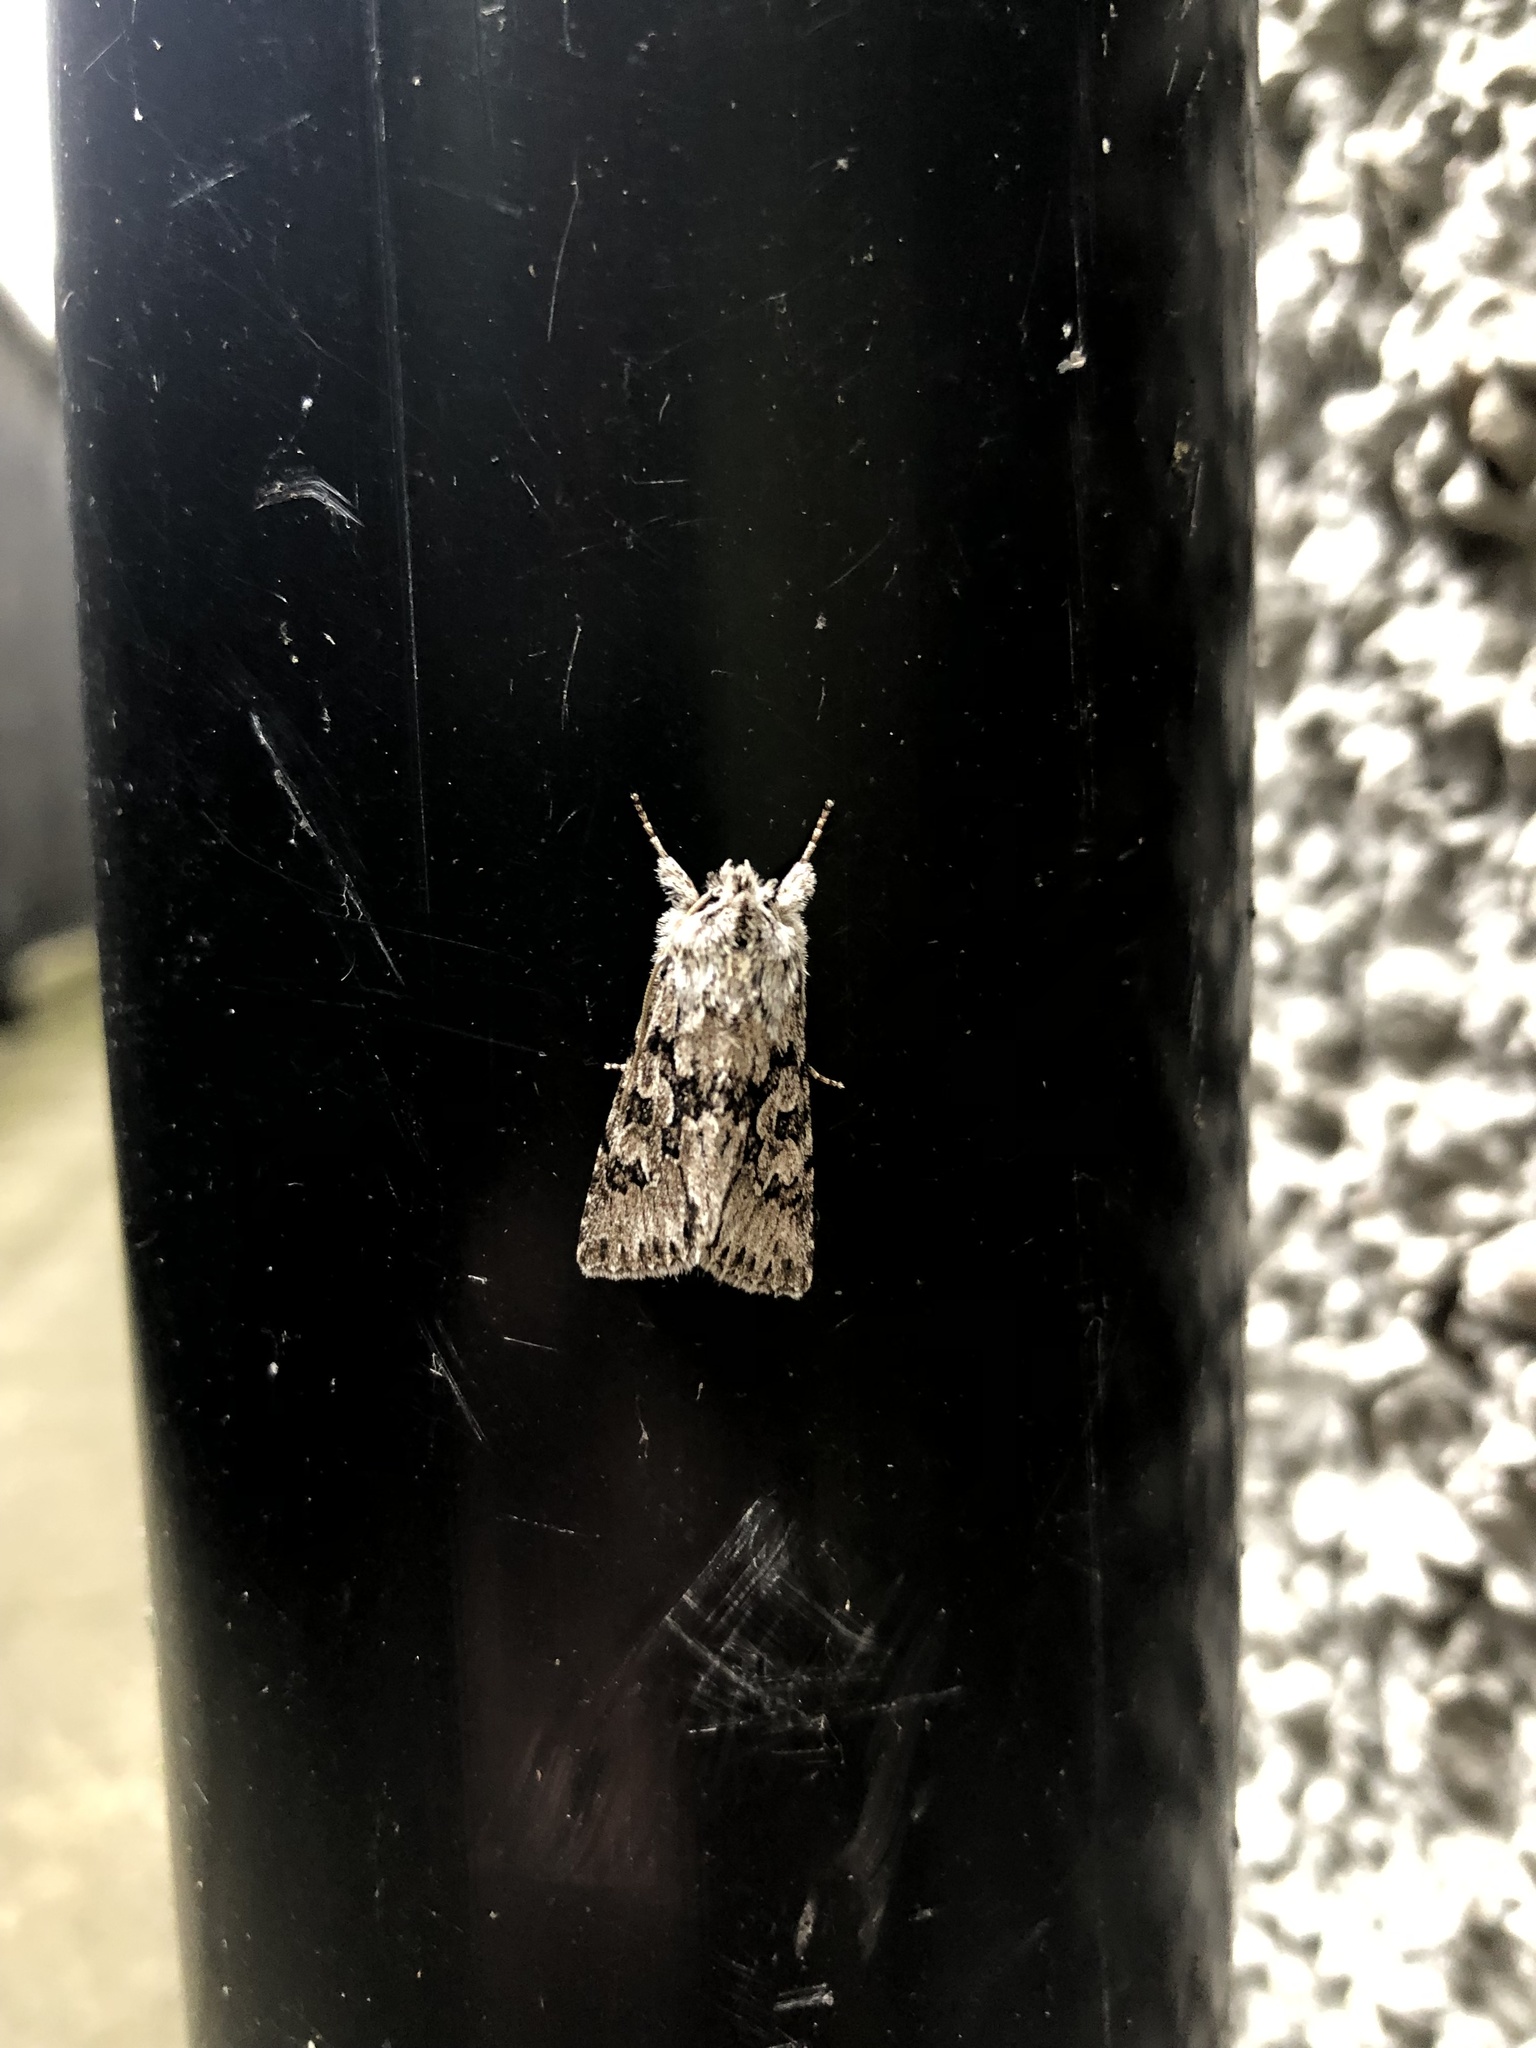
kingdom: Animalia
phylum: Arthropoda
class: Insecta
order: Lepidoptera
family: Noctuidae
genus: Xylocampa
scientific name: Xylocampa areola
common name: Early grey
